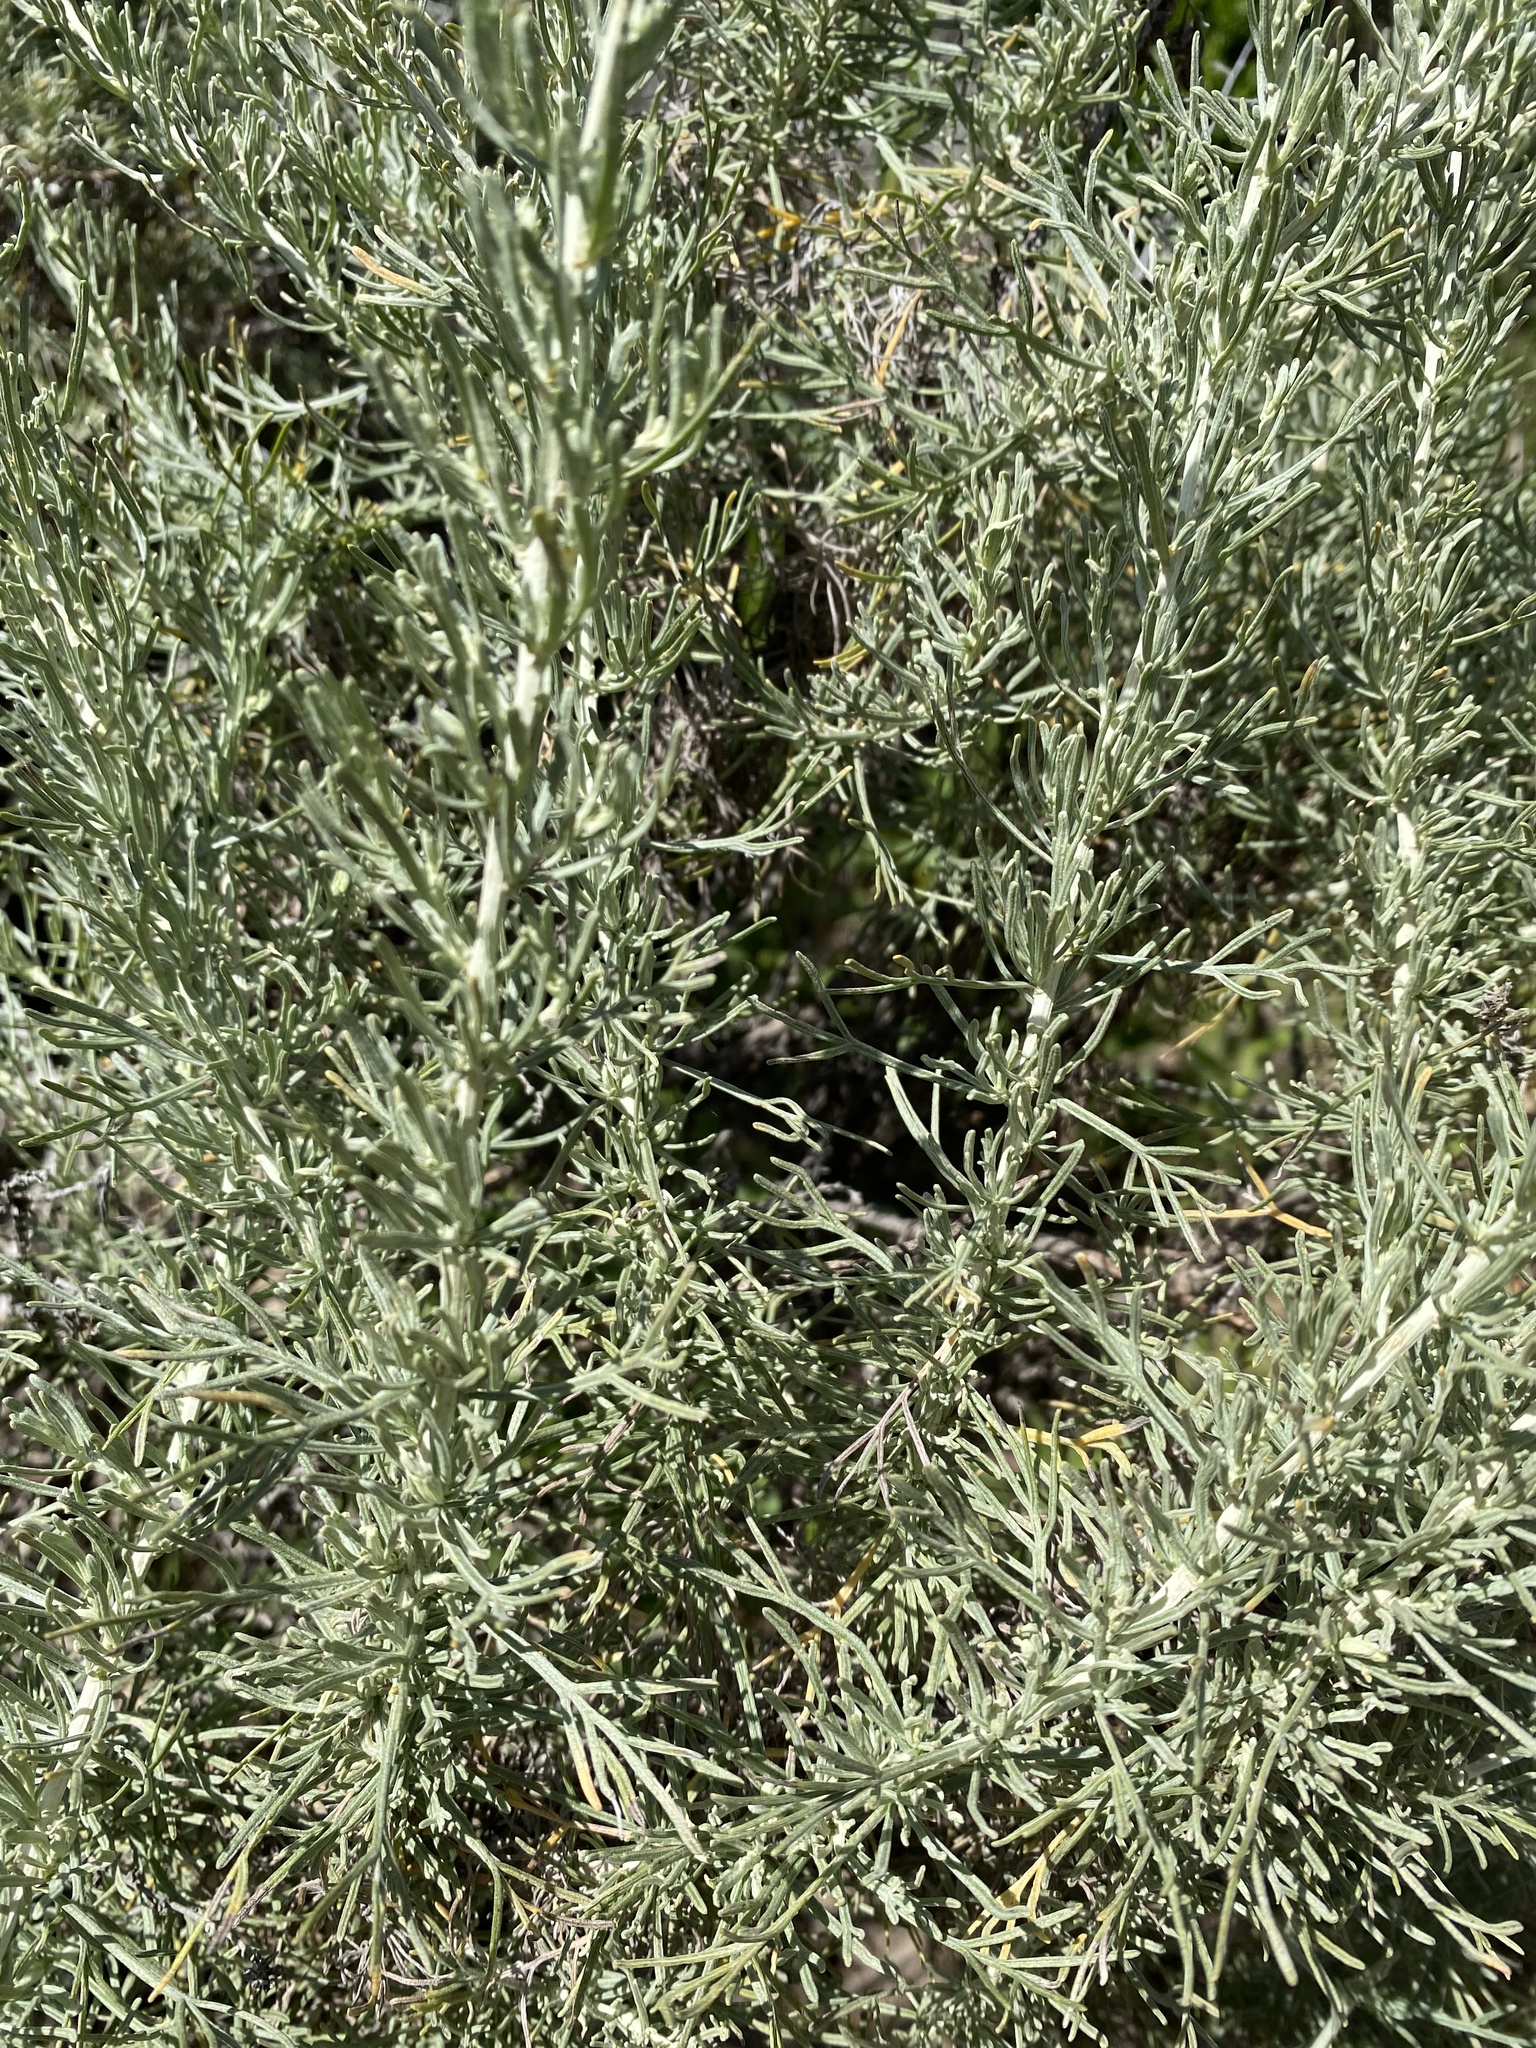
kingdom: Plantae
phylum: Tracheophyta
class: Magnoliopsida
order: Asterales
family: Asteraceae
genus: Artemisia
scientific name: Artemisia californica
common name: California sagebrush
